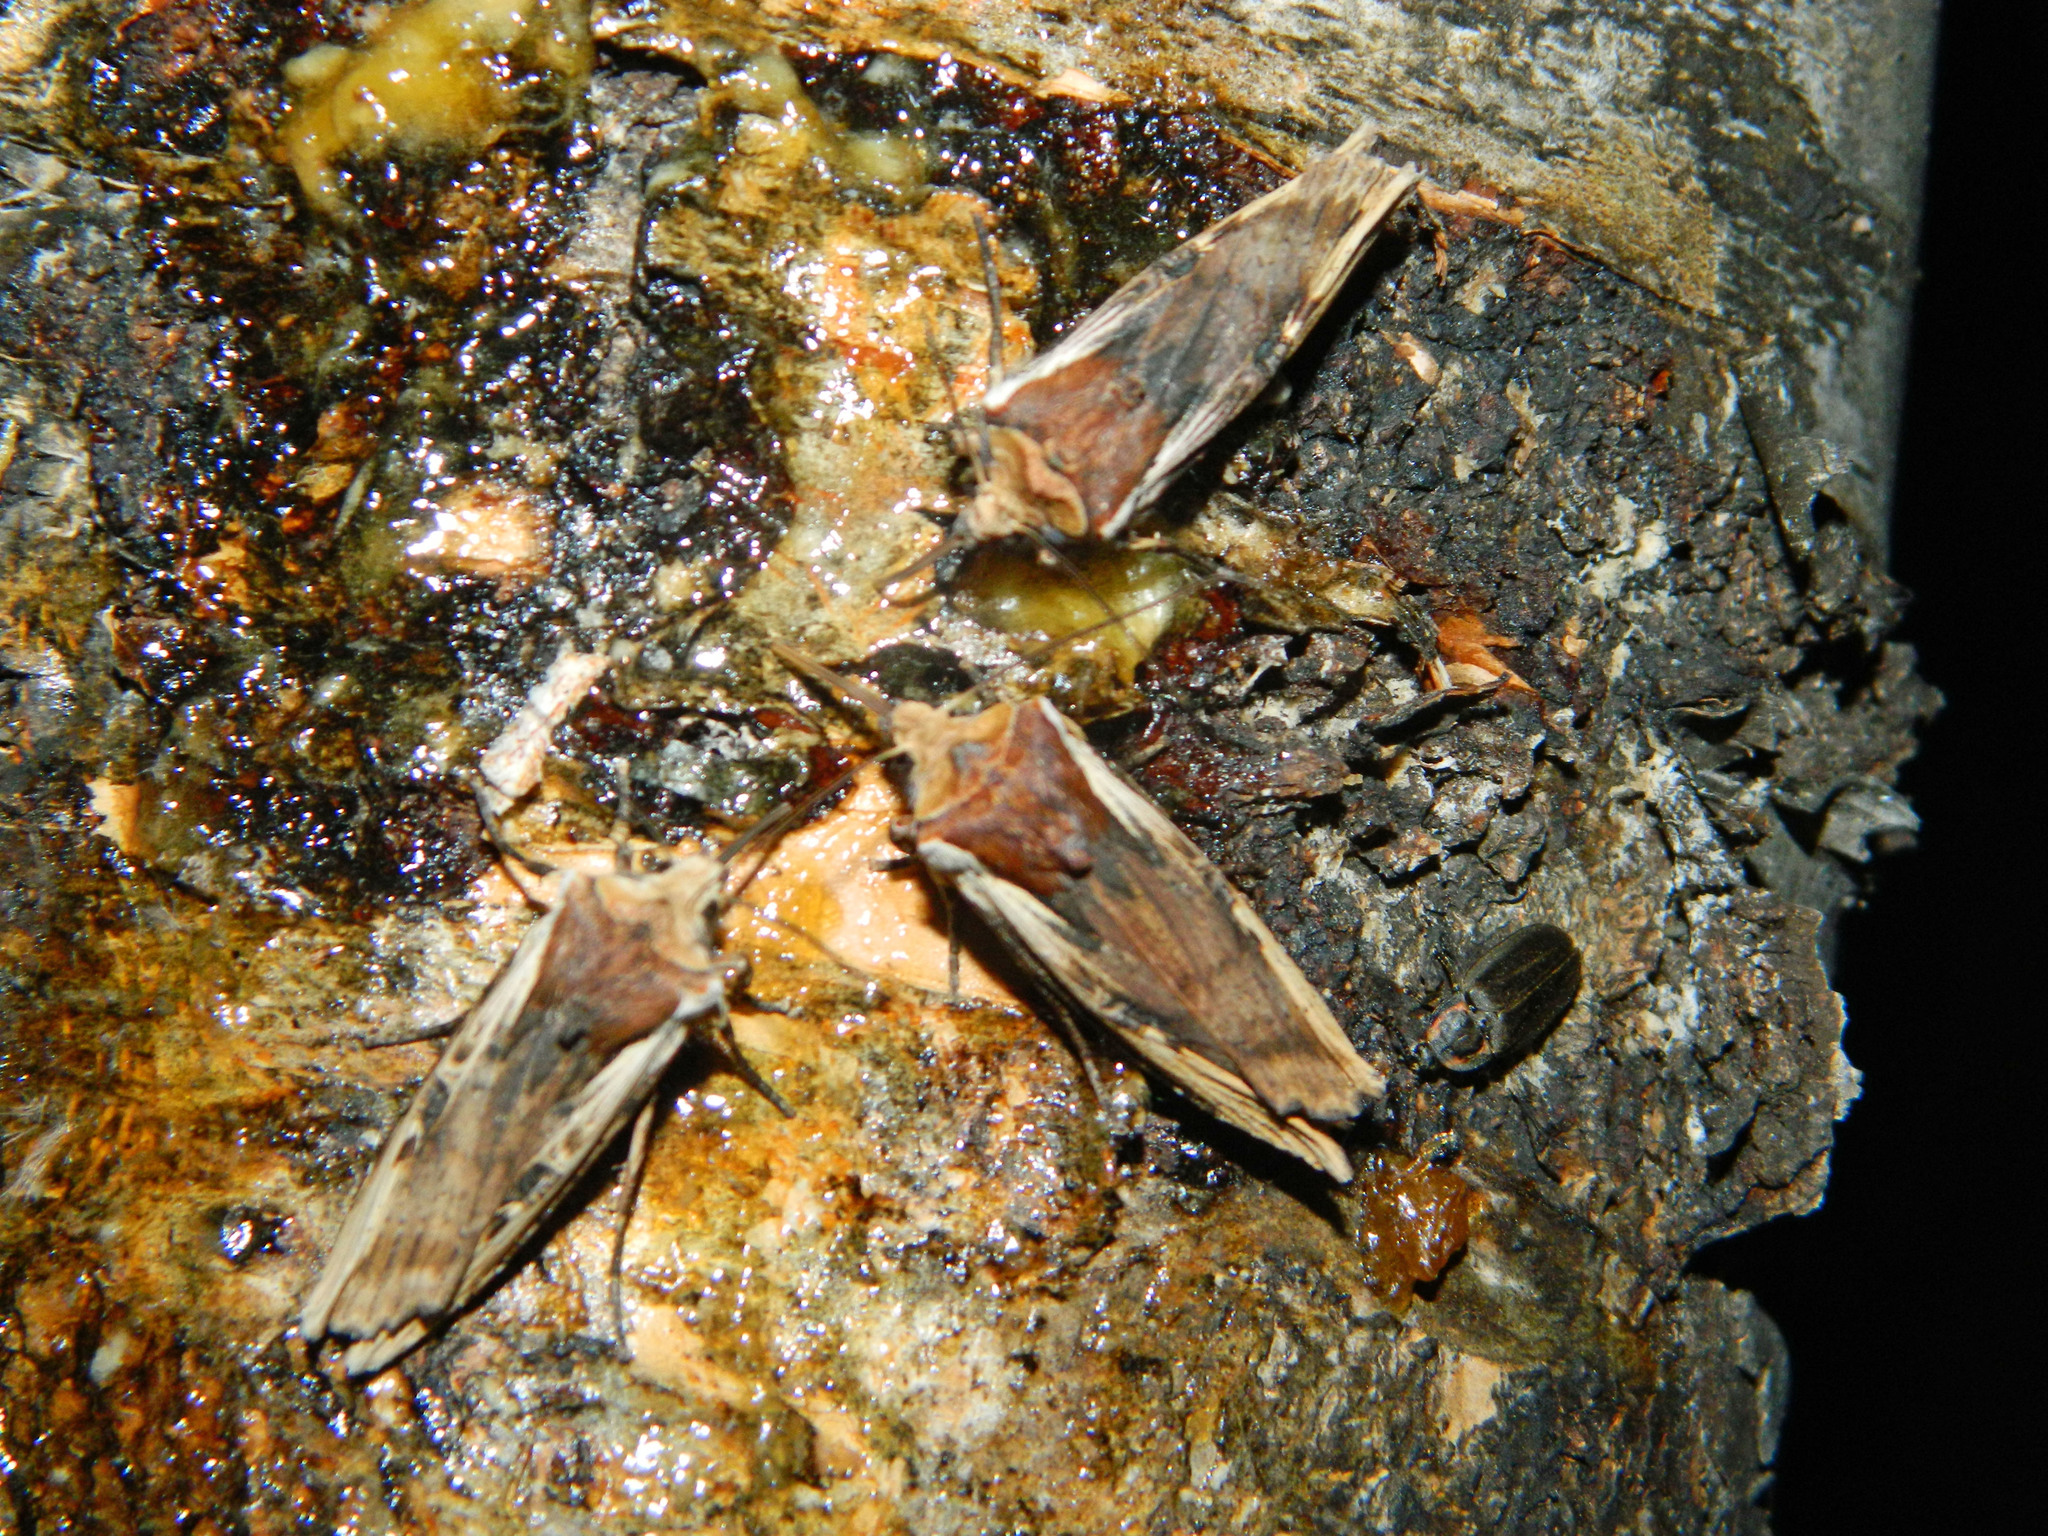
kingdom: Animalia
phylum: Arthropoda
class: Insecta
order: Lepidoptera
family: Noctuidae
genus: Xylena
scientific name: Xylena curvimacula
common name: Dot-and-dash swordgrass moth
